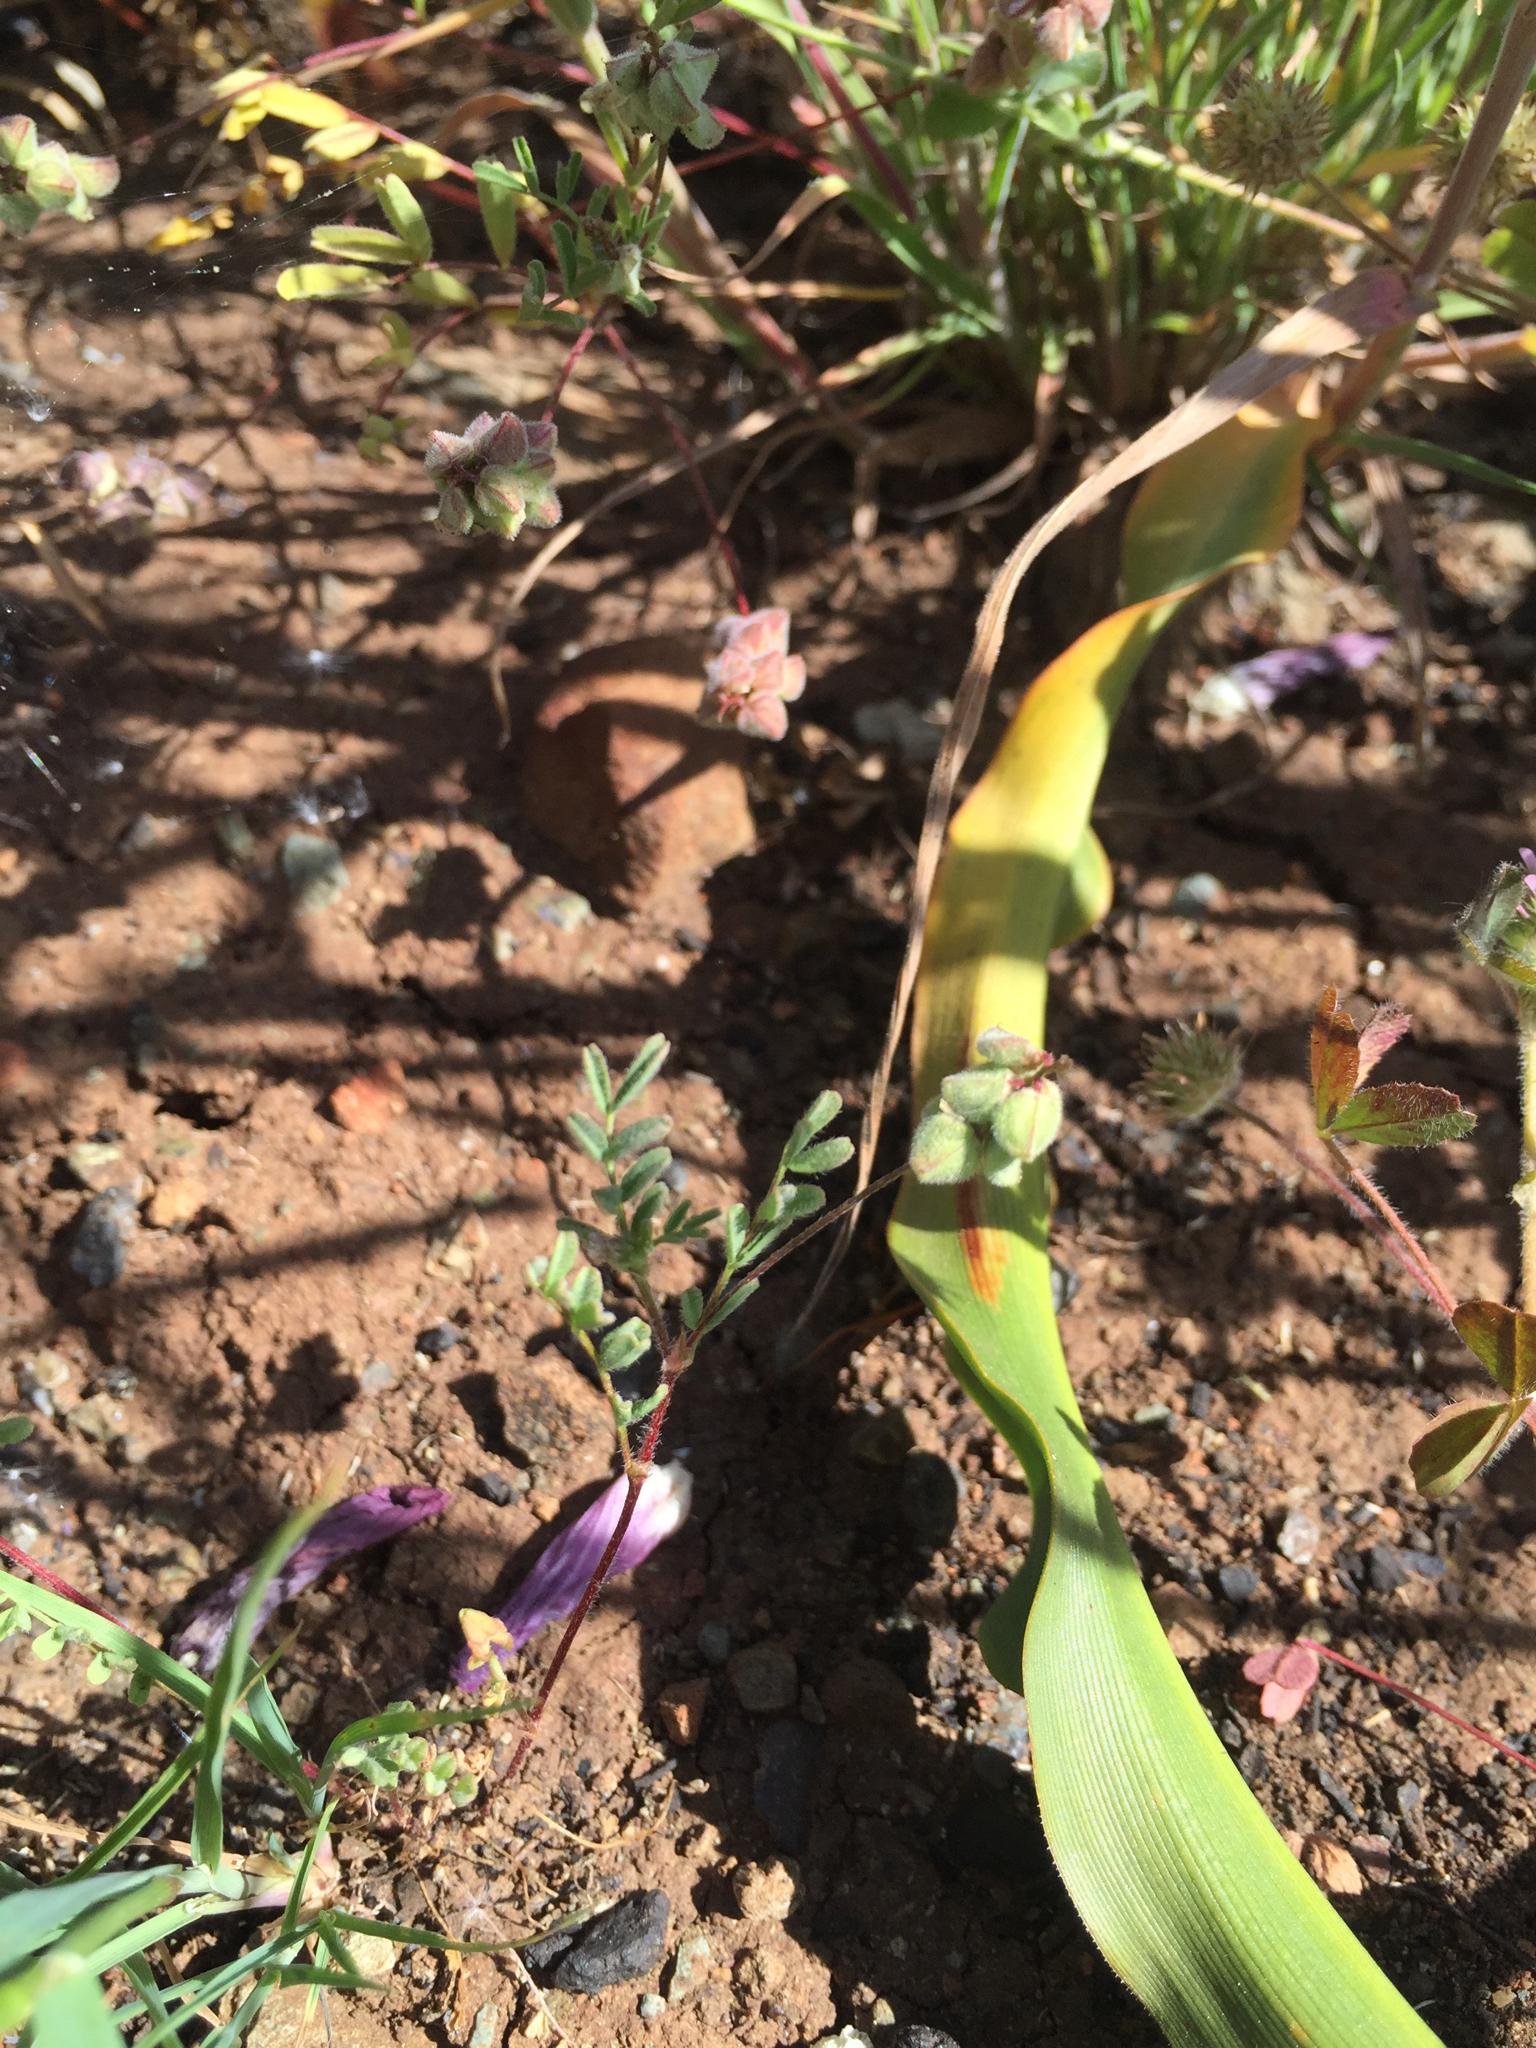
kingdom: Plantae
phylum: Tracheophyta
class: Magnoliopsida
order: Fabales
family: Fabaceae
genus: Astragalus
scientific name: Astragalus gambelianus
